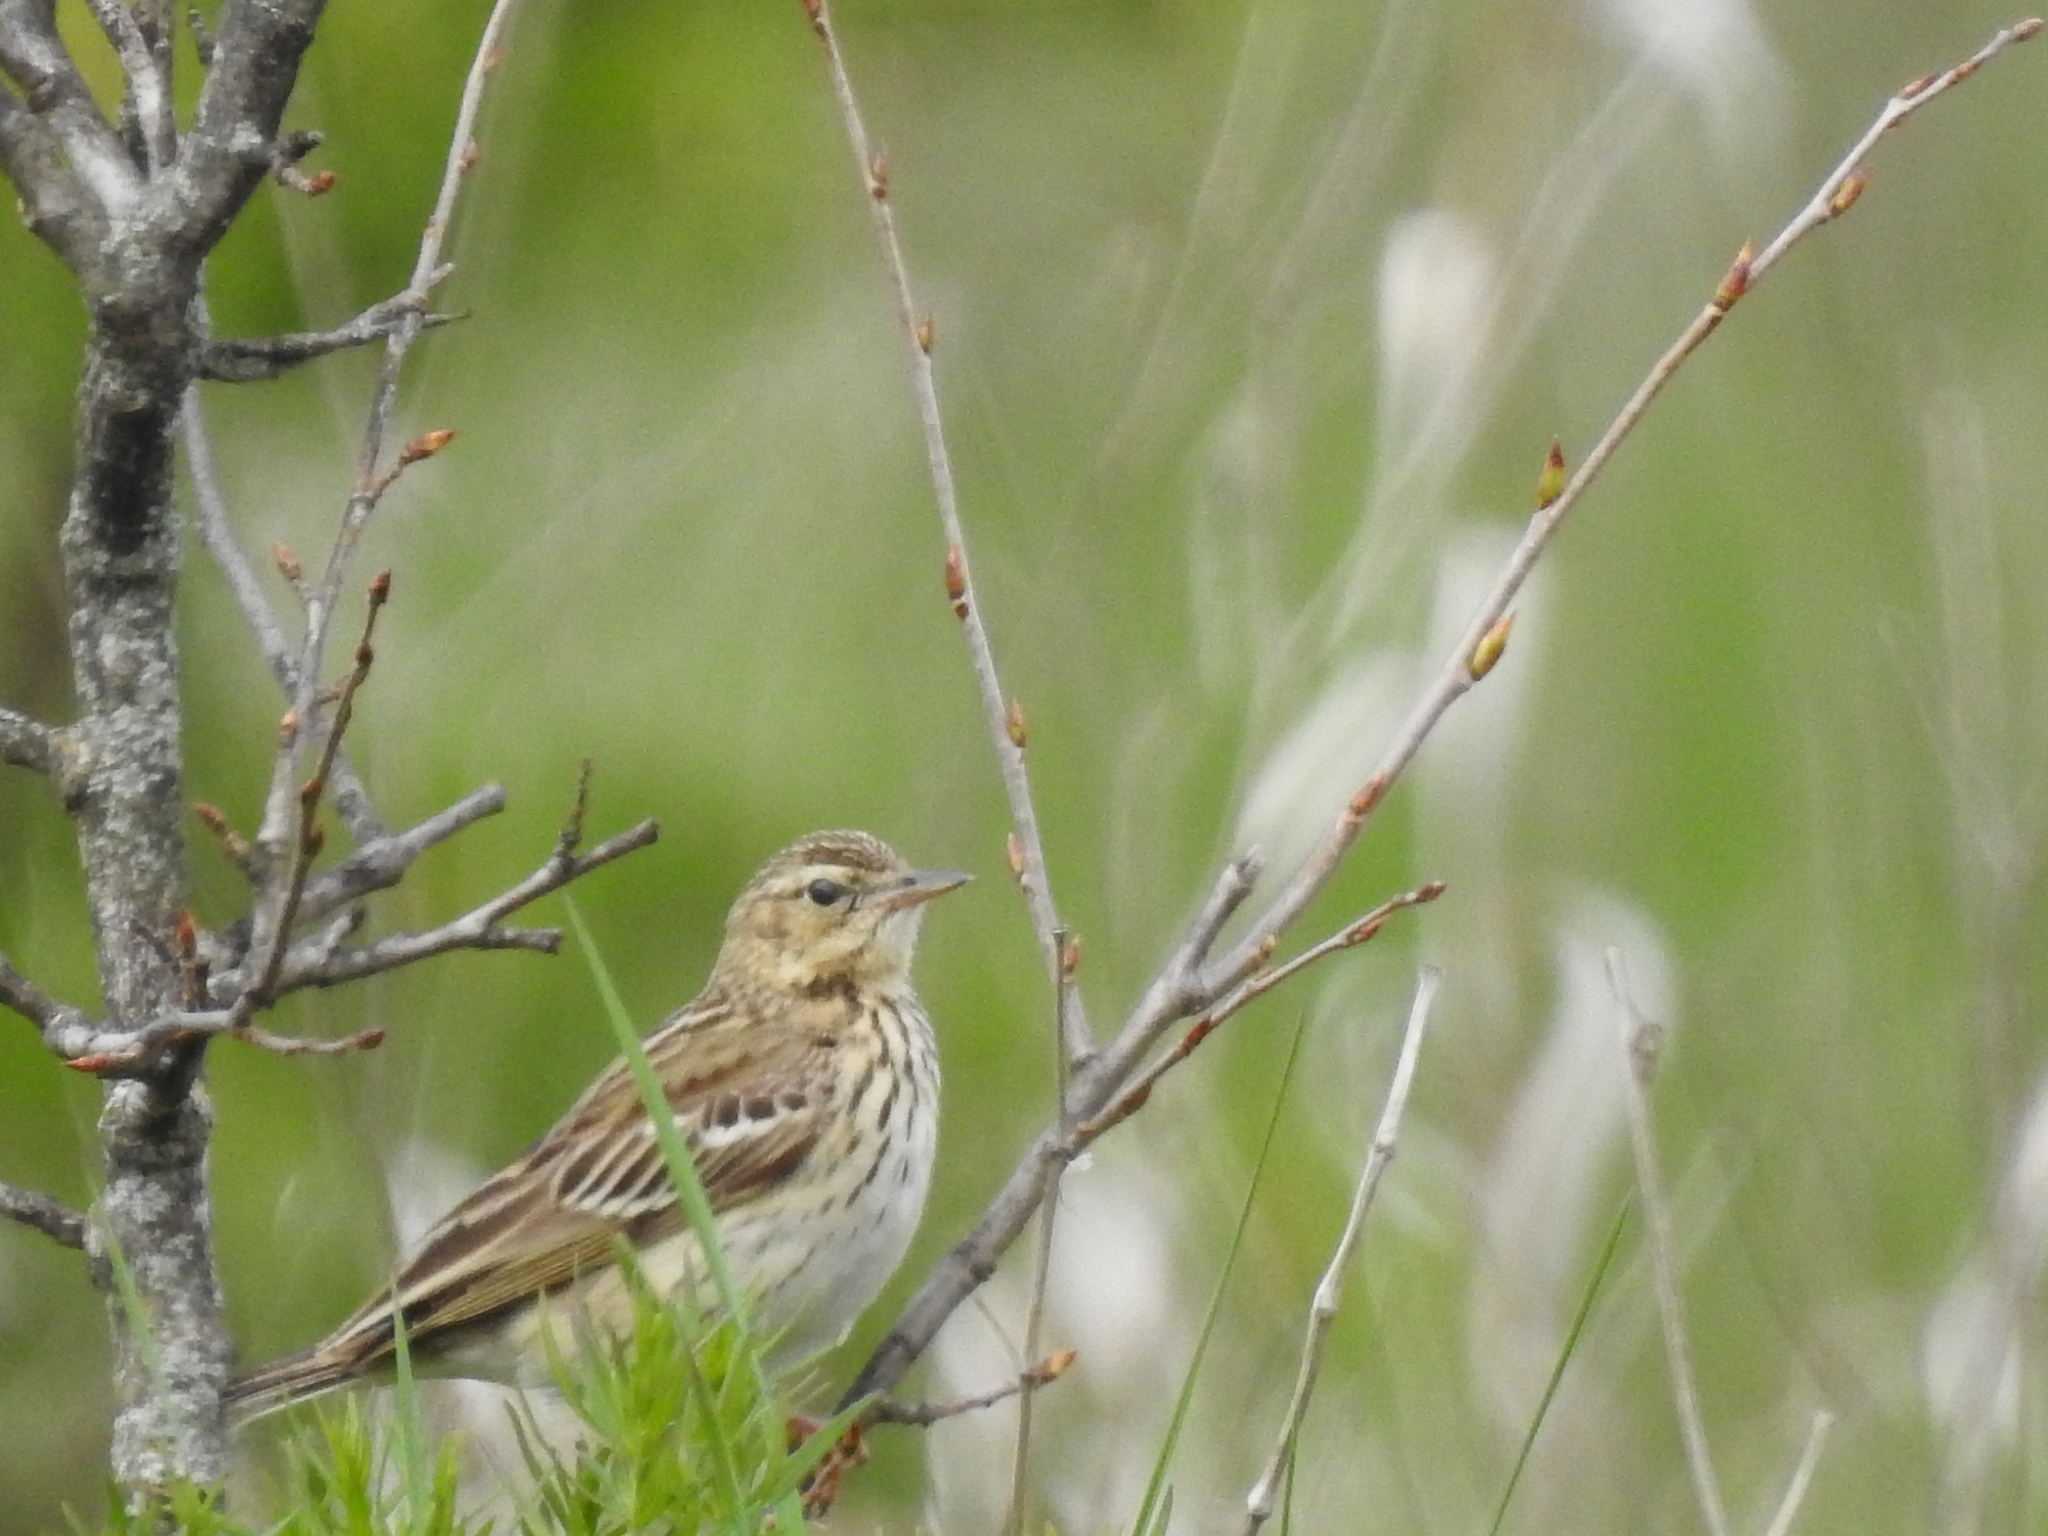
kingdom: Animalia
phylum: Chordata
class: Aves
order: Passeriformes
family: Motacillidae
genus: Anthus
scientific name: Anthus trivialis
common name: Tree pipit
